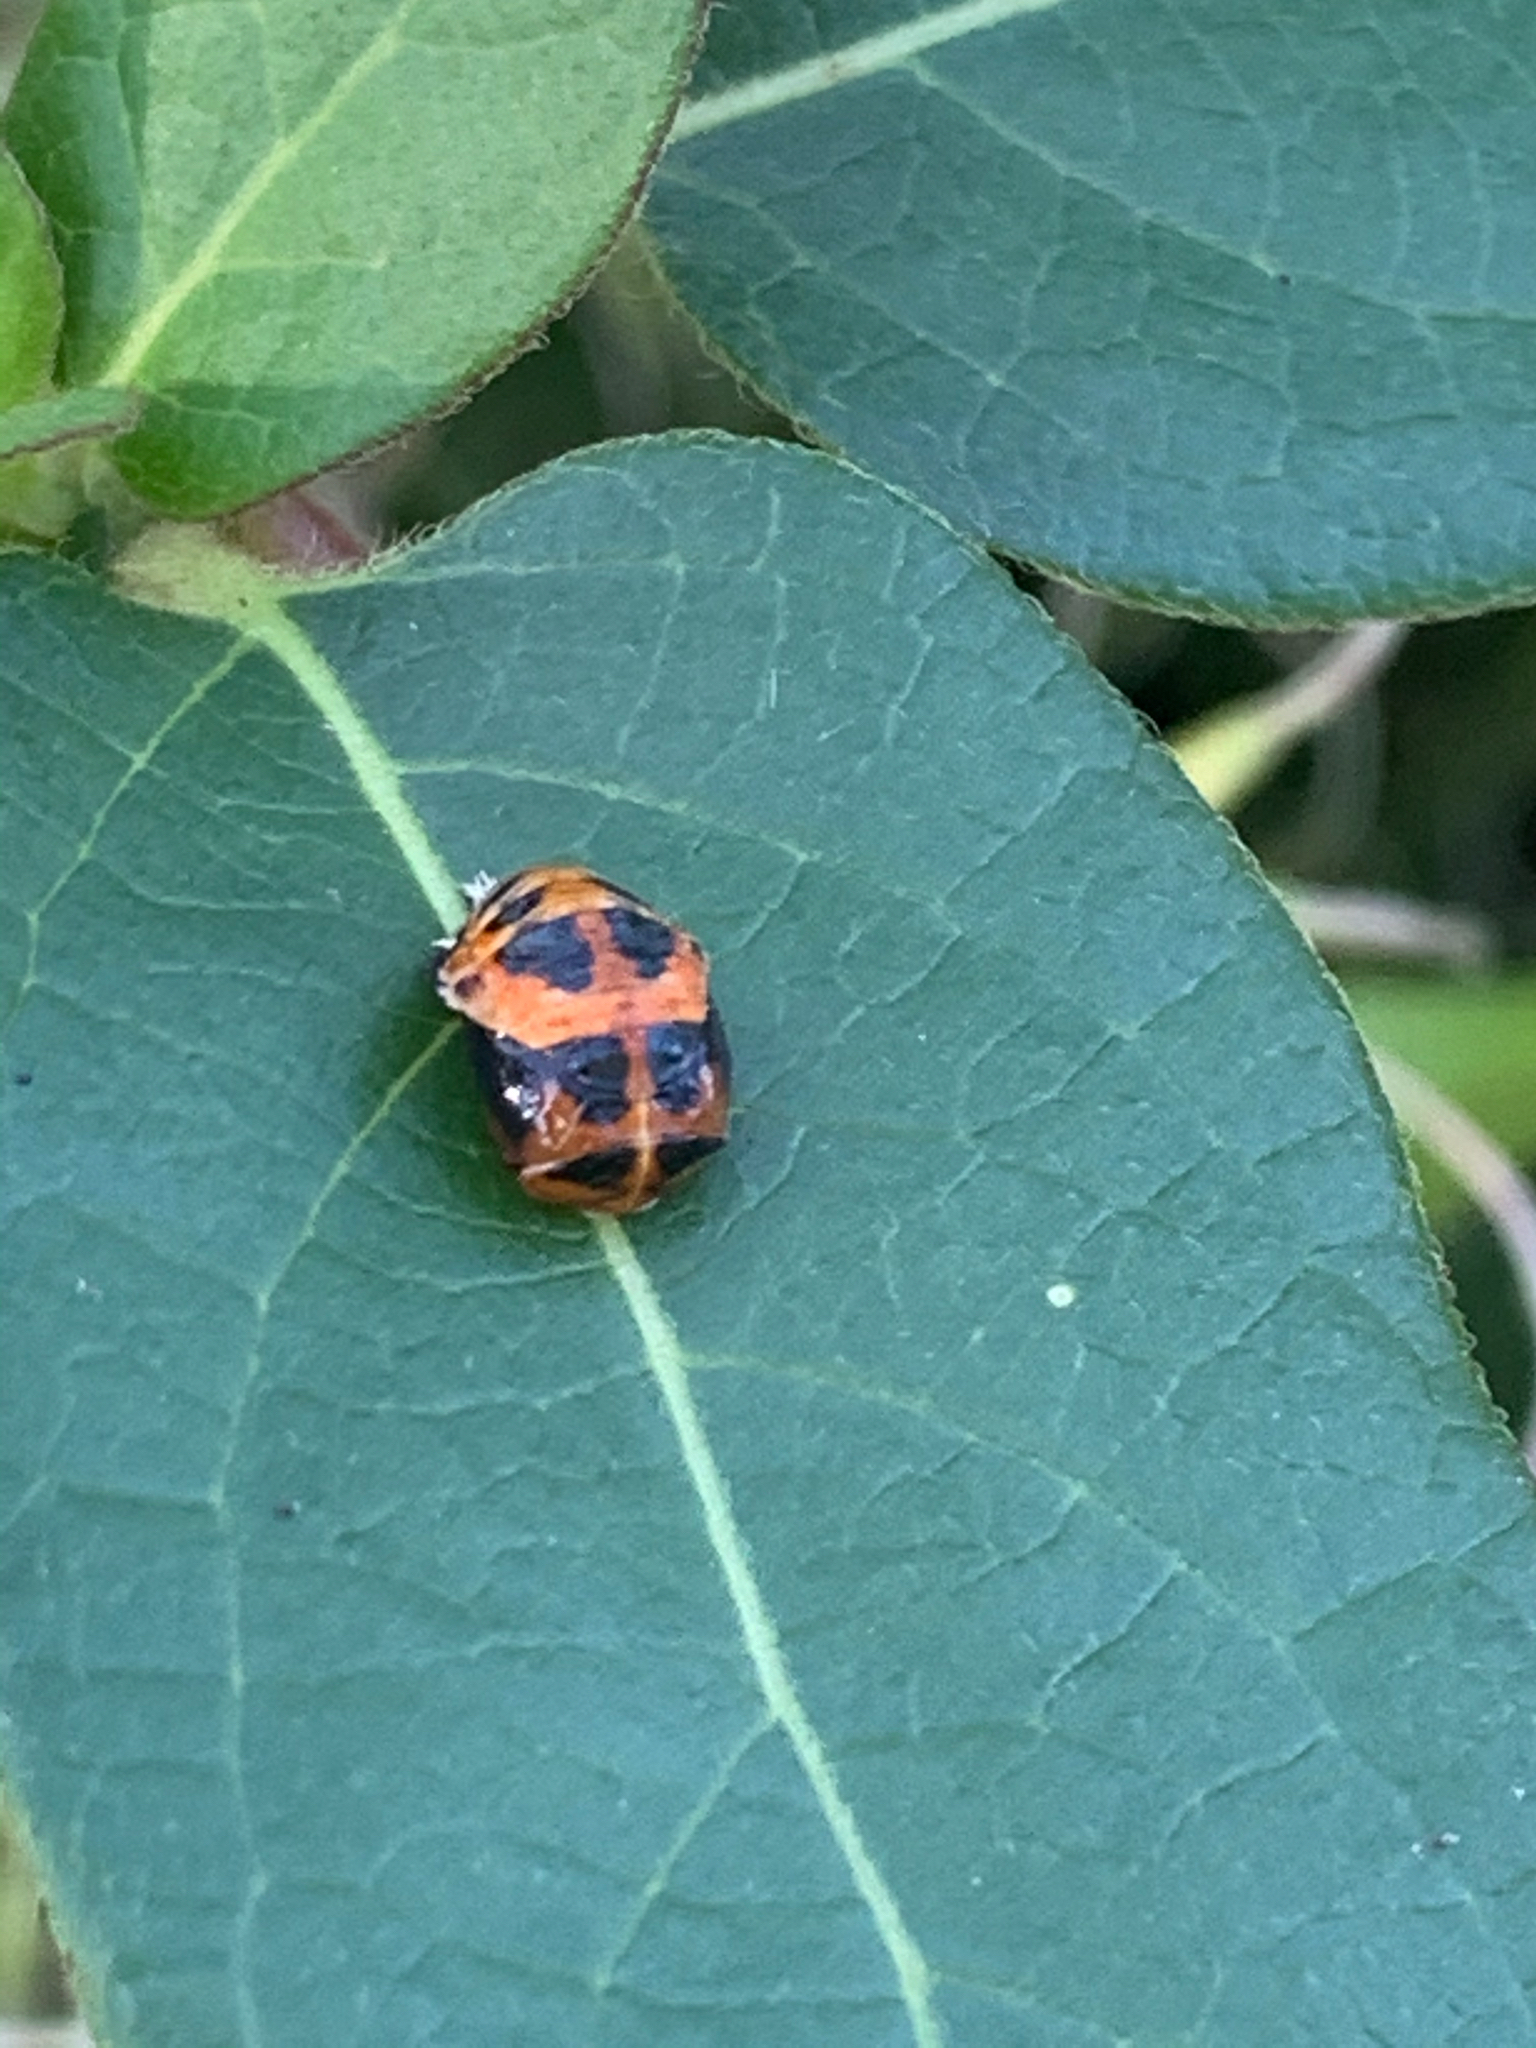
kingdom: Animalia
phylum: Arthropoda
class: Insecta
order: Coleoptera
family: Coccinellidae
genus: Harmonia
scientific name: Harmonia axyridis
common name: Harlequin ladybird
